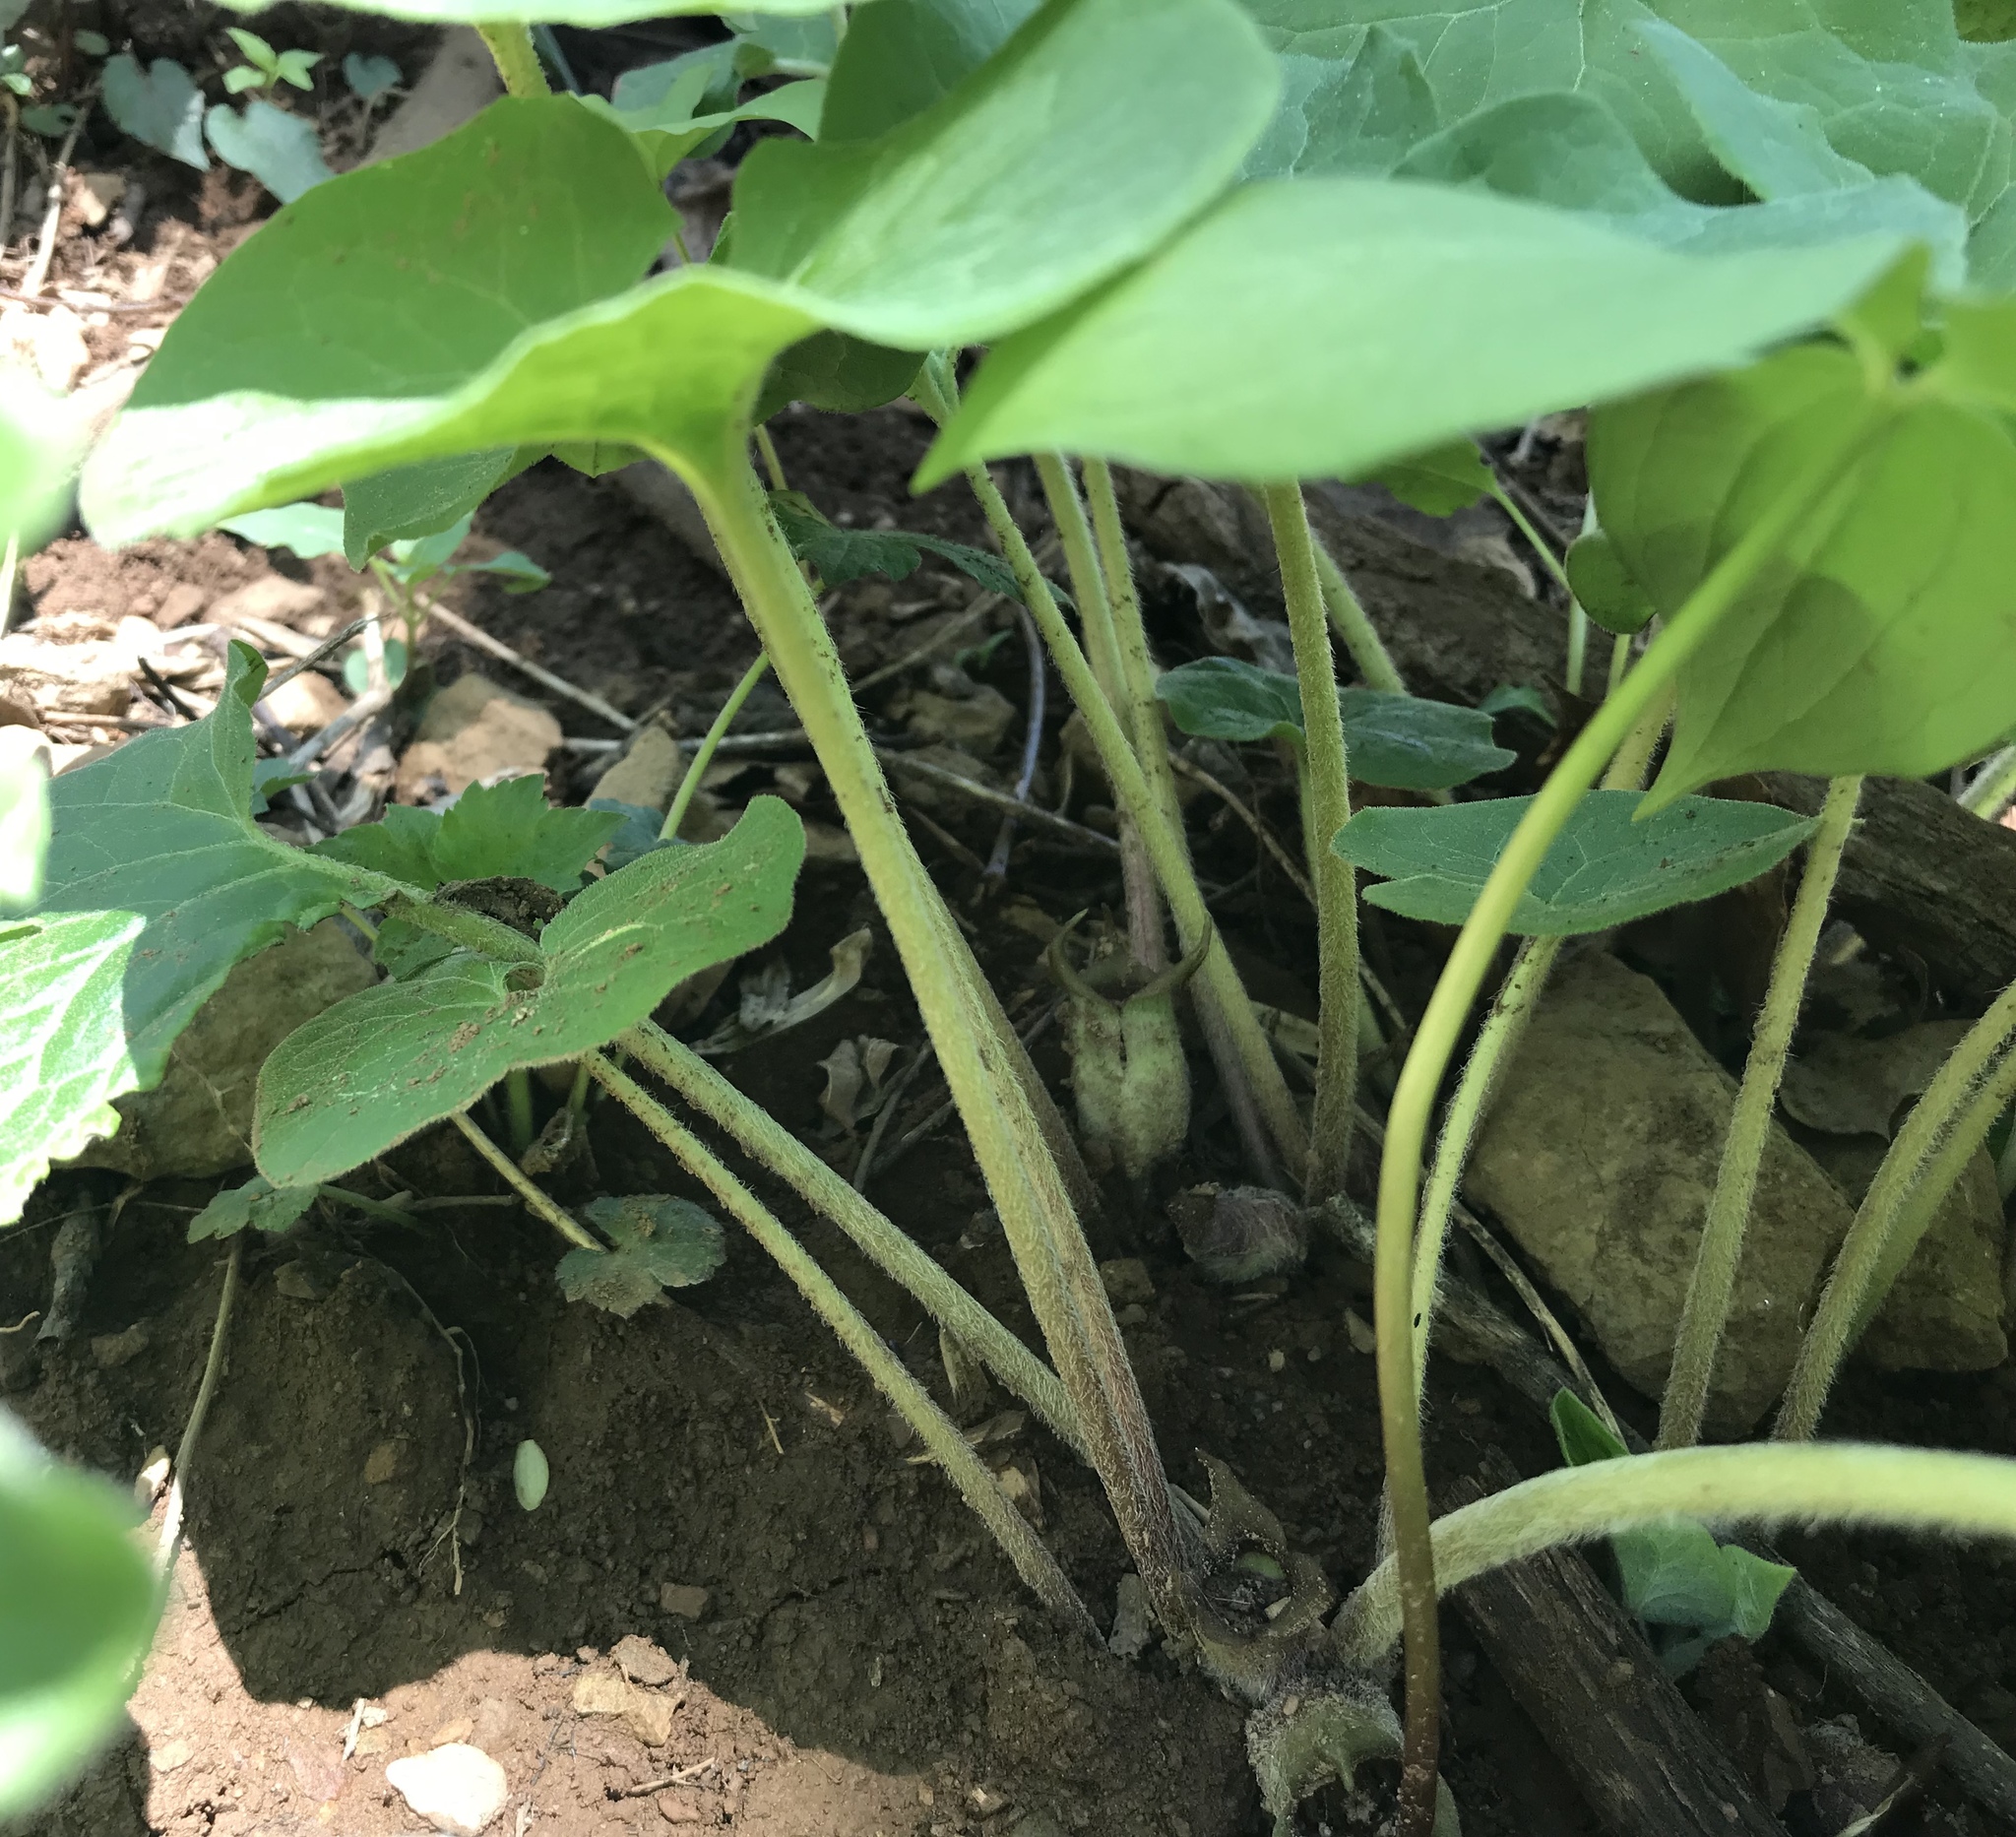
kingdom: Plantae
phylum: Tracheophyta
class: Magnoliopsida
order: Piperales
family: Aristolochiaceae
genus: Asarum
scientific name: Asarum canadense
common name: Wild ginger
